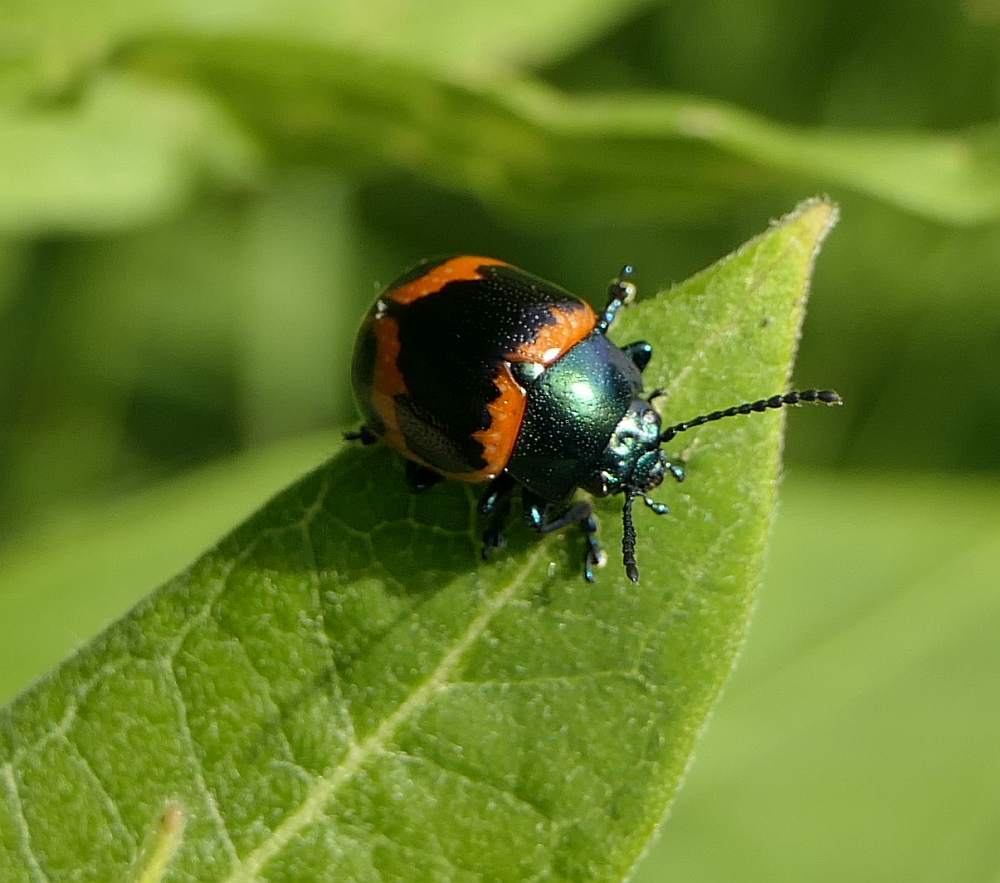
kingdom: Animalia
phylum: Arthropoda
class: Insecta
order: Coleoptera
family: Chrysomelidae
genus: Labidomera
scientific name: Labidomera clivicollis
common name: Swamp milkweed leaf beetle
